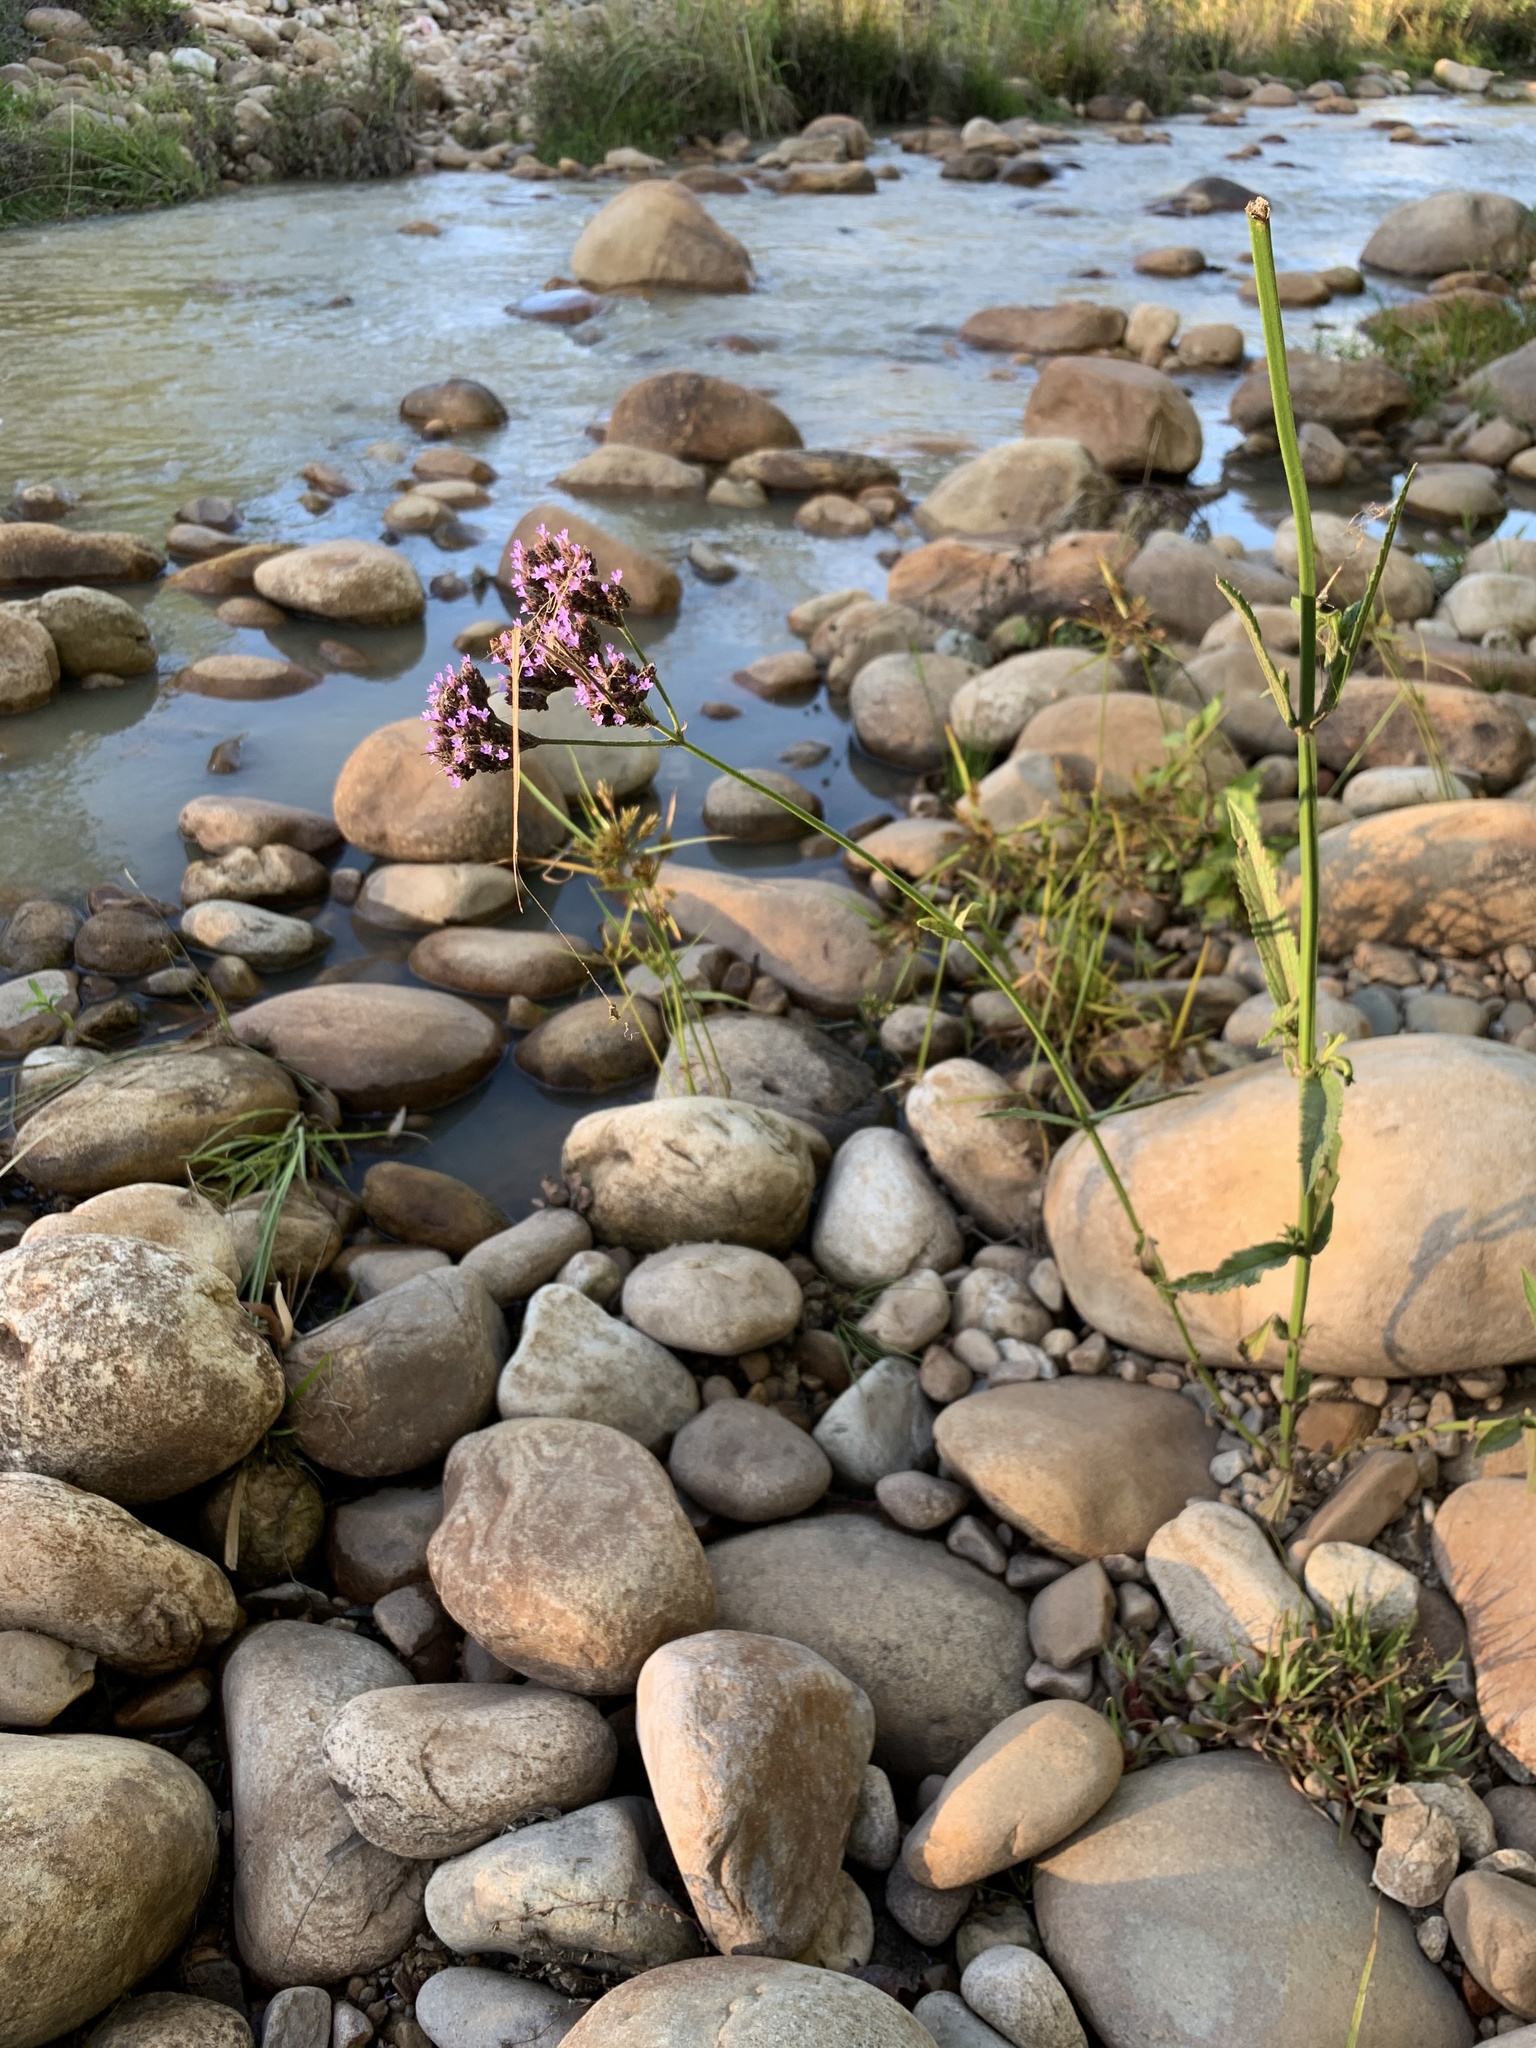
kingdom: Plantae
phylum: Tracheophyta
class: Magnoliopsida
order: Lamiales
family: Verbenaceae
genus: Verbena
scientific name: Verbena bonariensis
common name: Purpletop vervain
